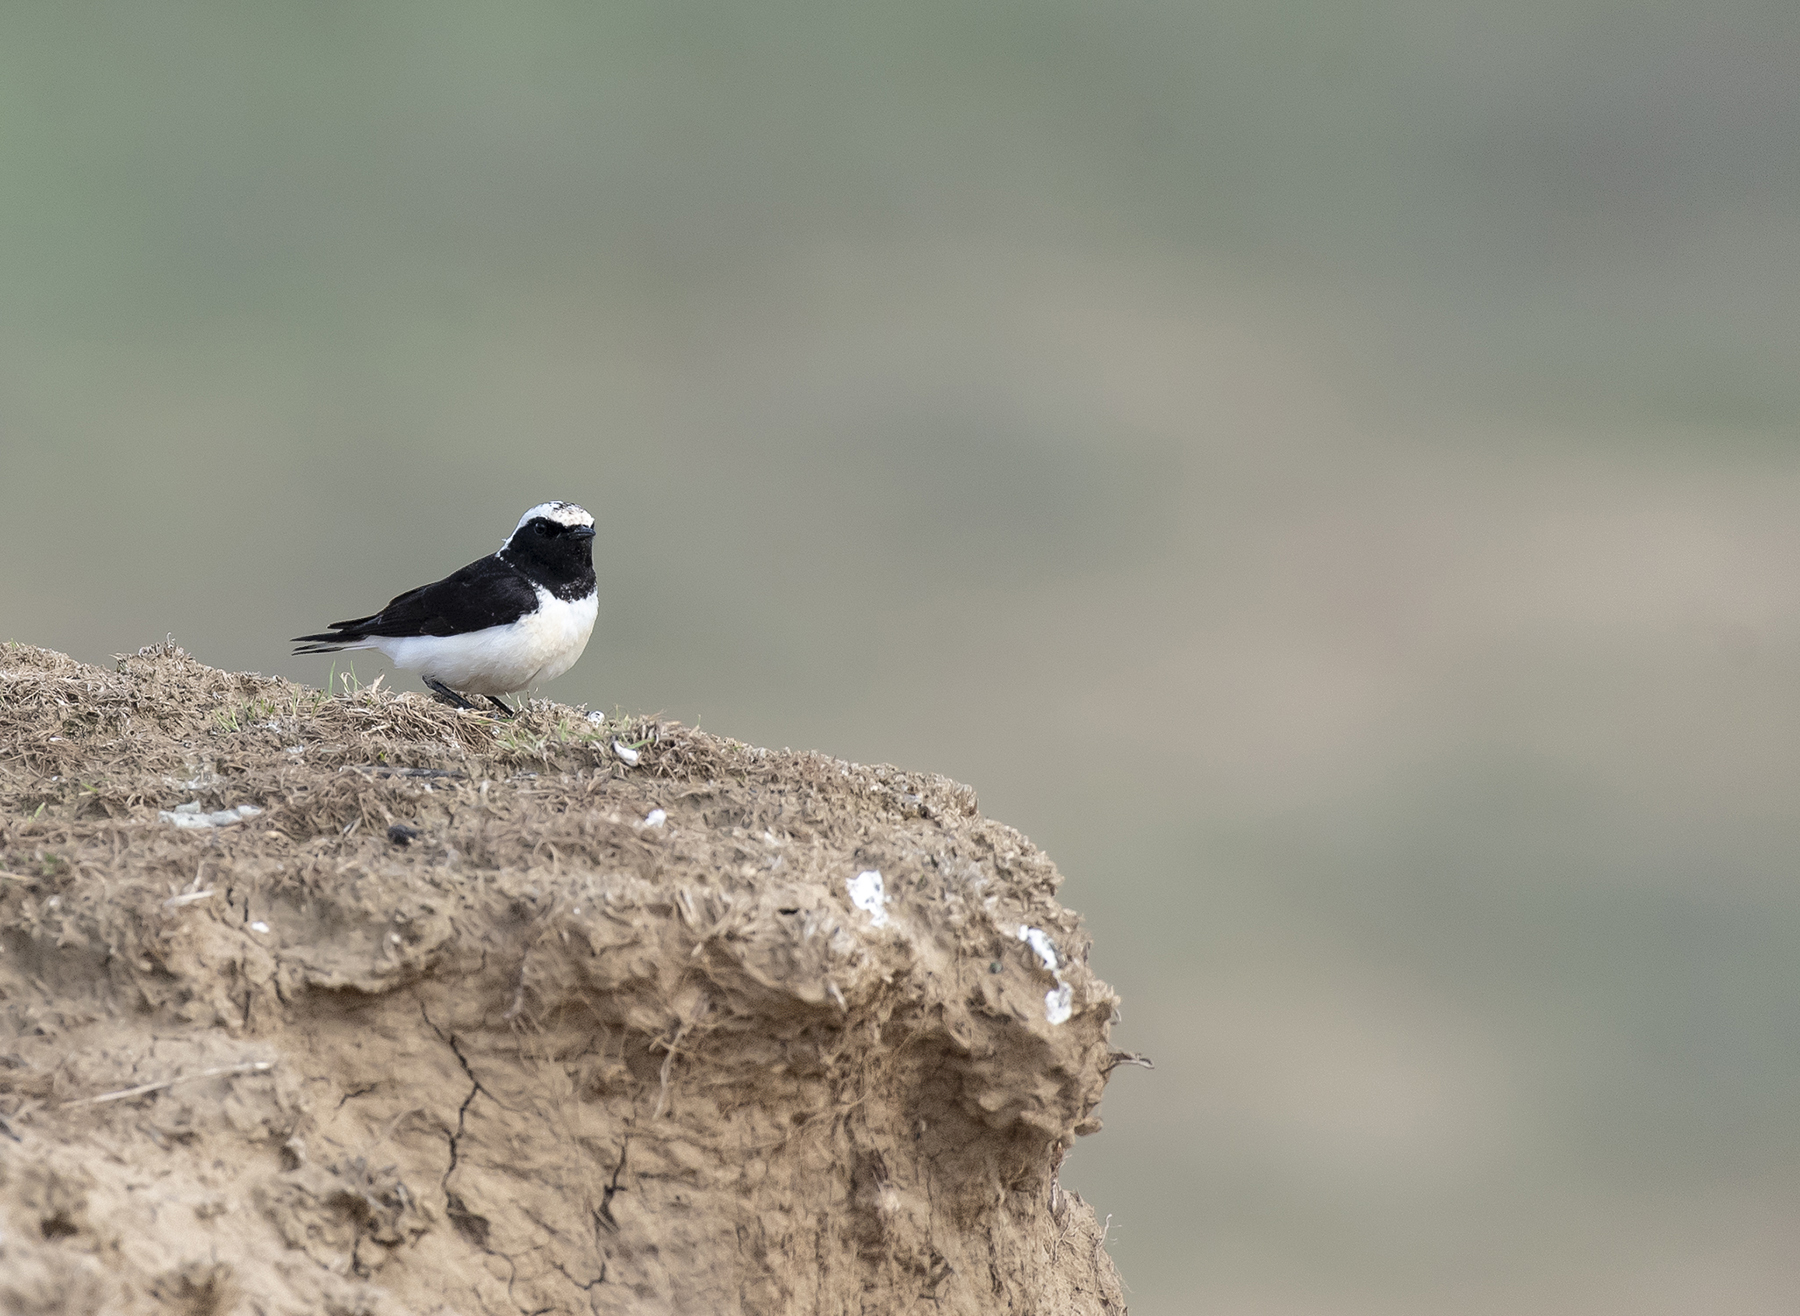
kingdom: Animalia
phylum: Chordata
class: Aves
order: Passeriformes
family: Muscicapidae
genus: Oenanthe
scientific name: Oenanthe pleschanka
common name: Pied wheatear
